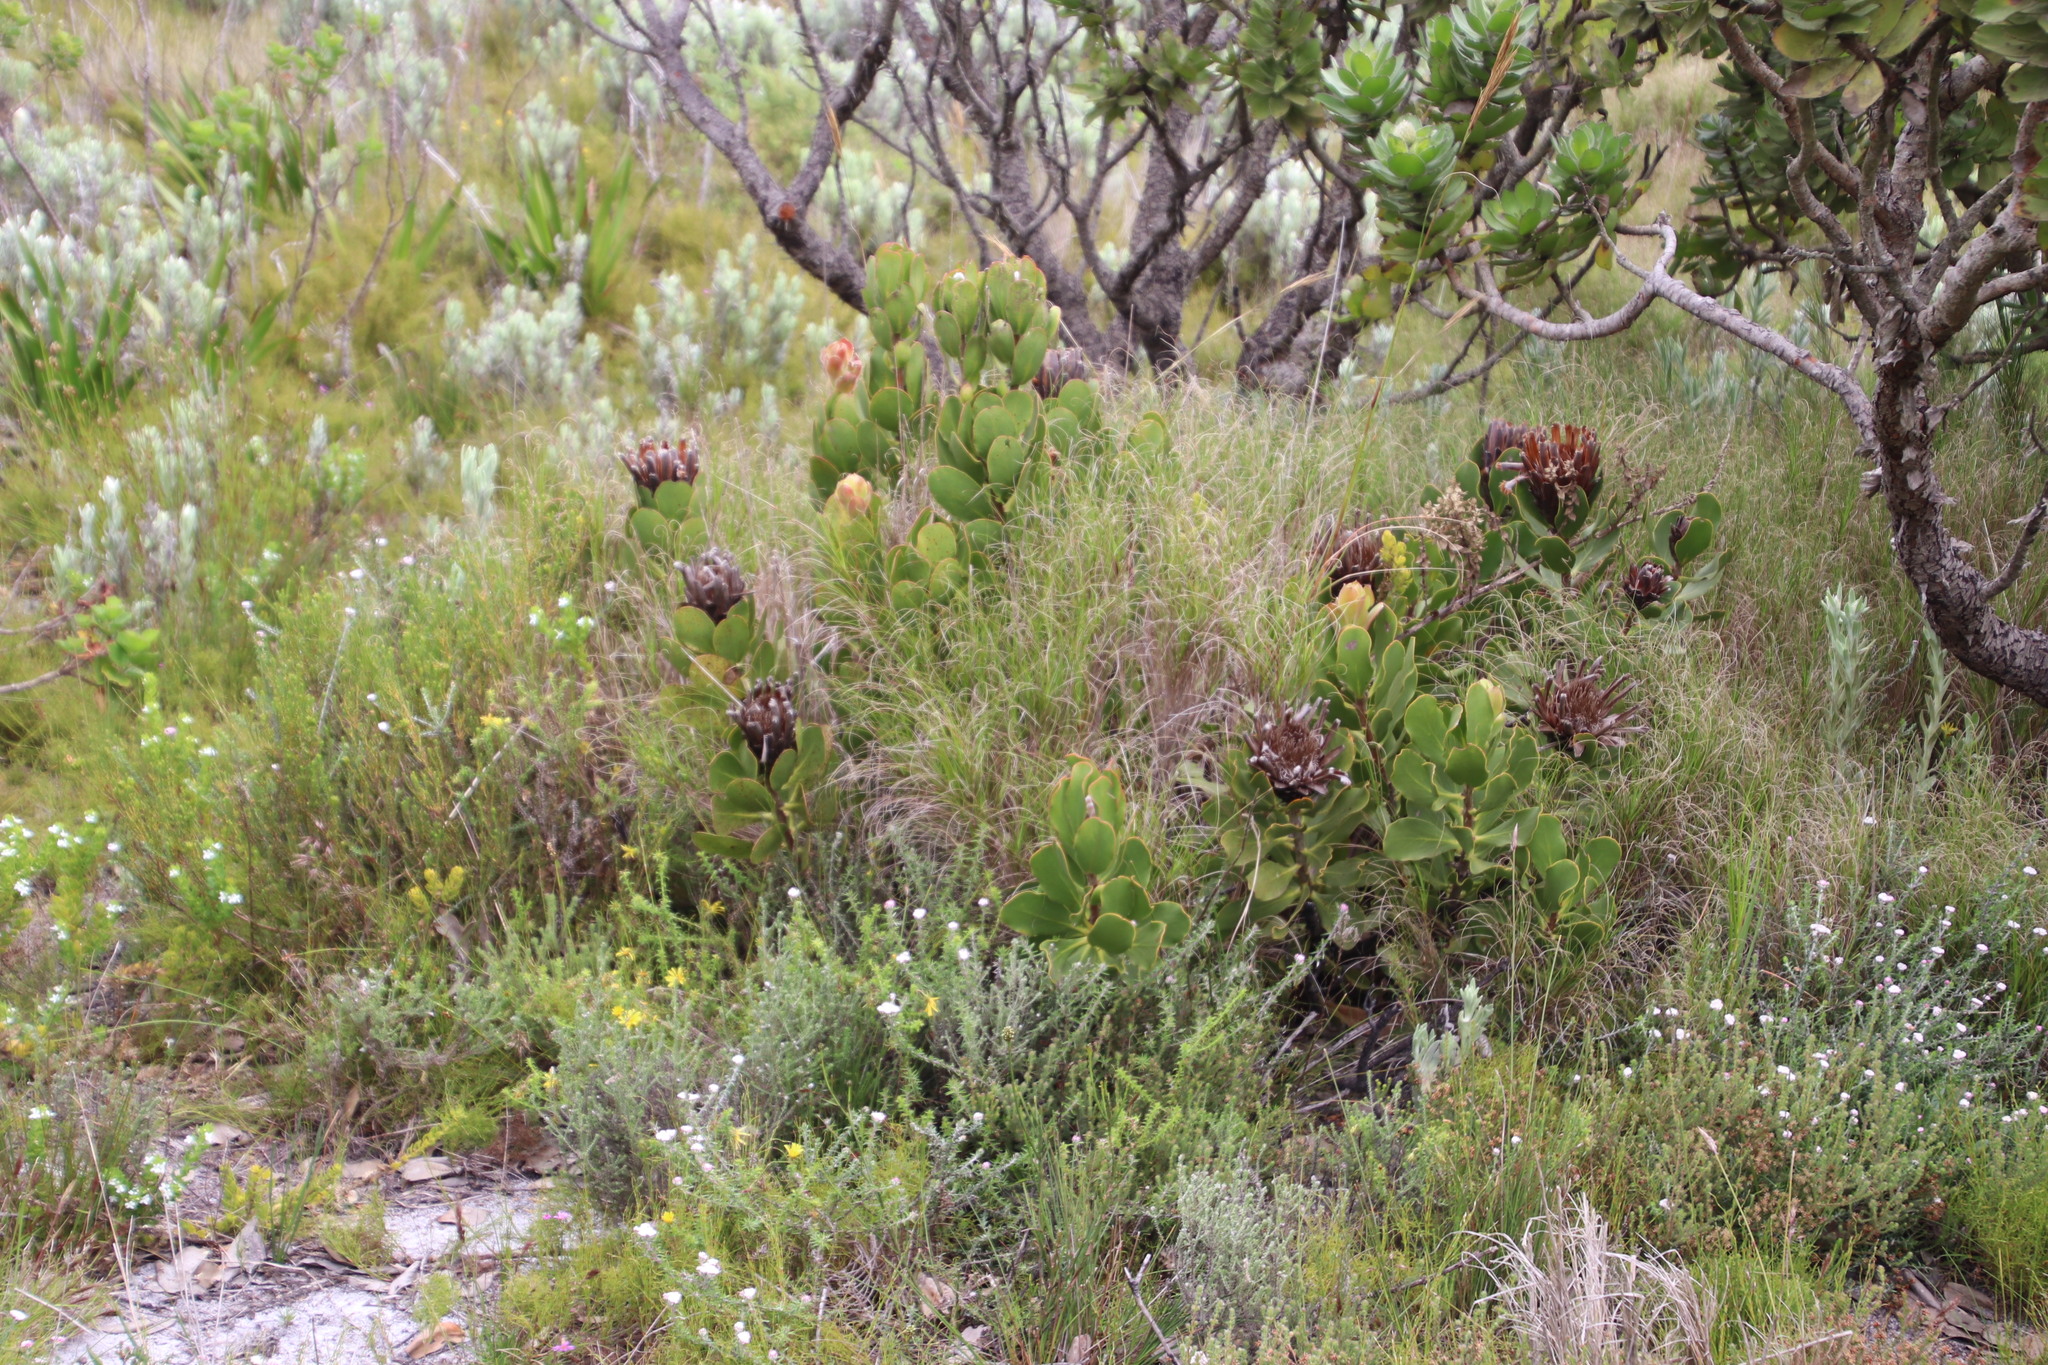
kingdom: Plantae
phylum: Tracheophyta
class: Magnoliopsida
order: Proteales
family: Proteaceae
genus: Protea
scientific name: Protea speciosa
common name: Brown-beard sugarbush
